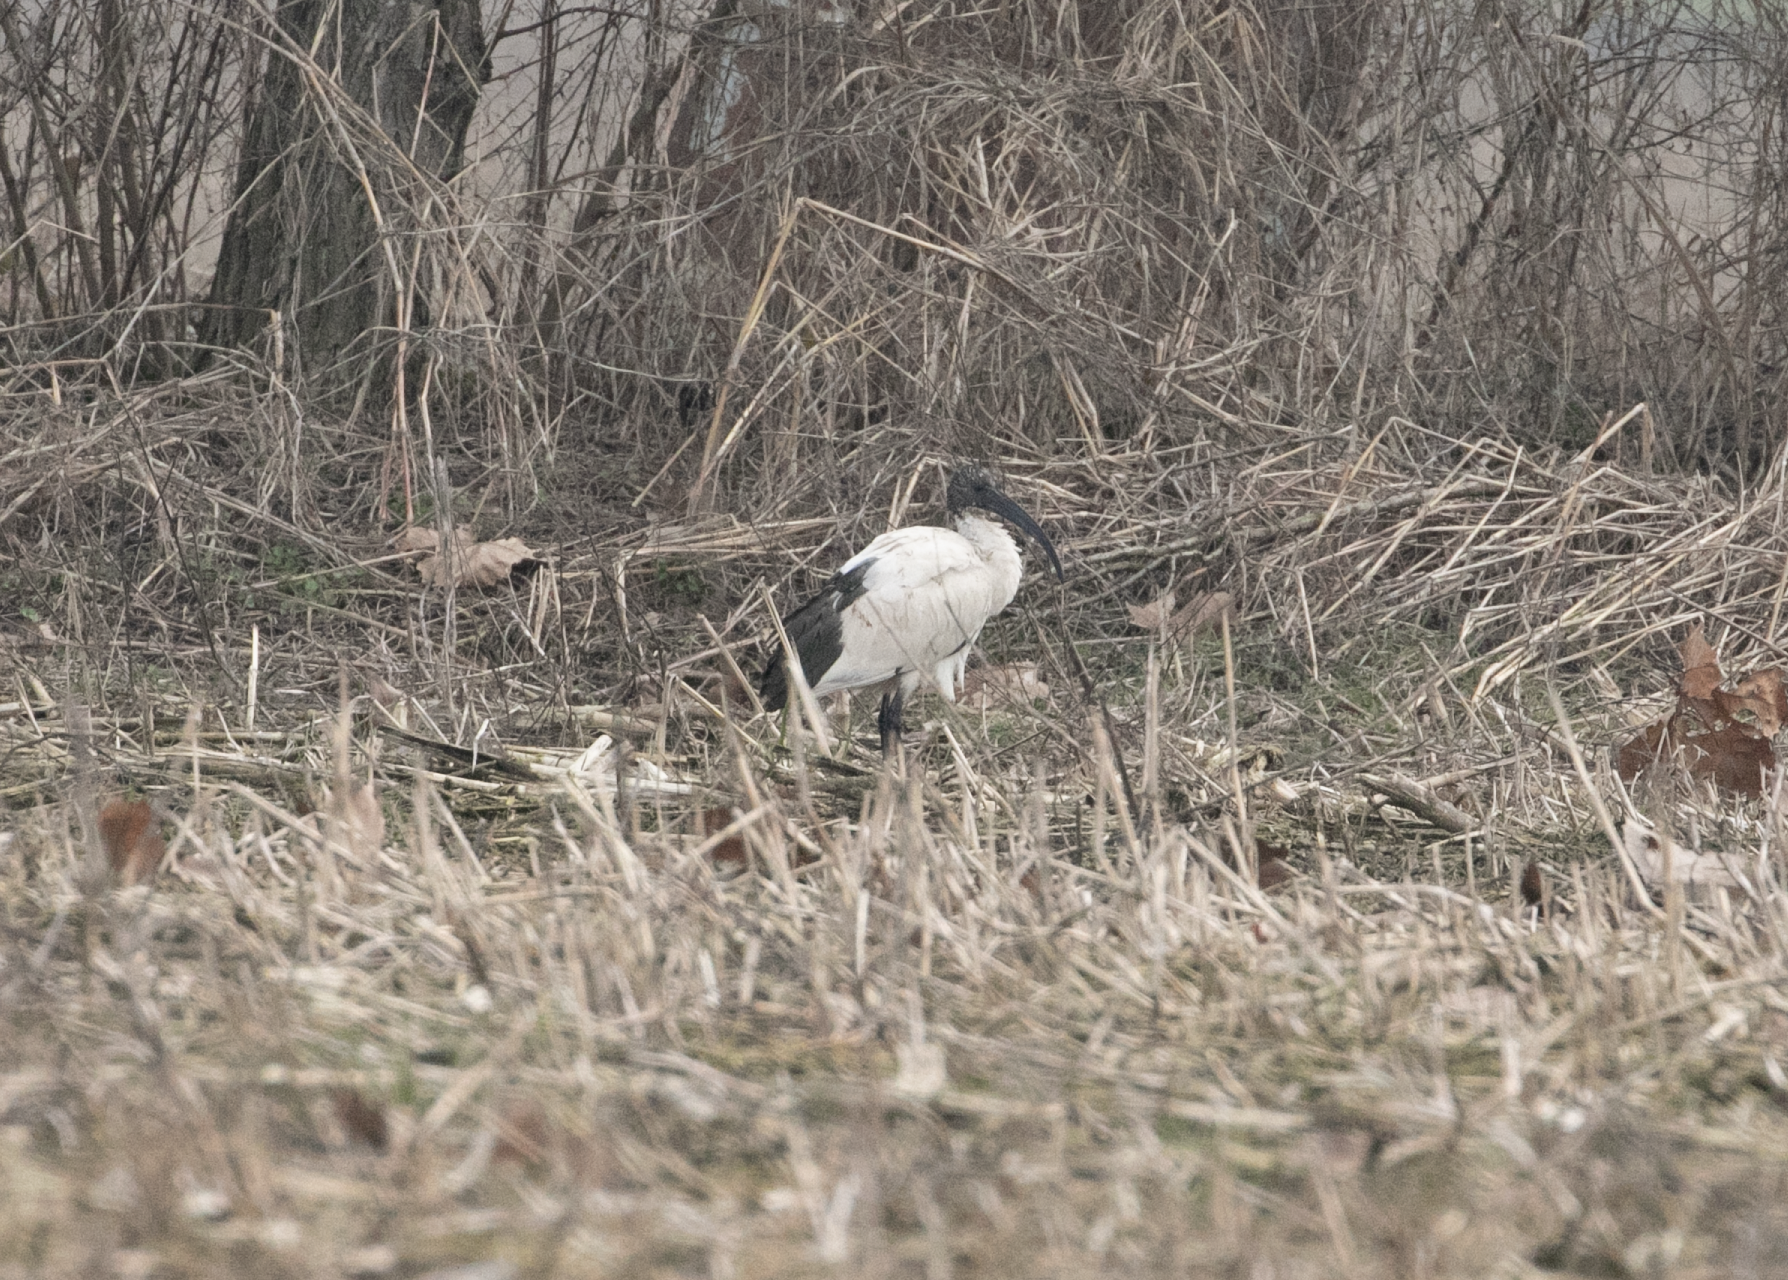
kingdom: Animalia
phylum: Chordata
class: Aves
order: Pelecaniformes
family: Threskiornithidae
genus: Threskiornis
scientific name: Threskiornis aethiopicus
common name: Sacred ibis
